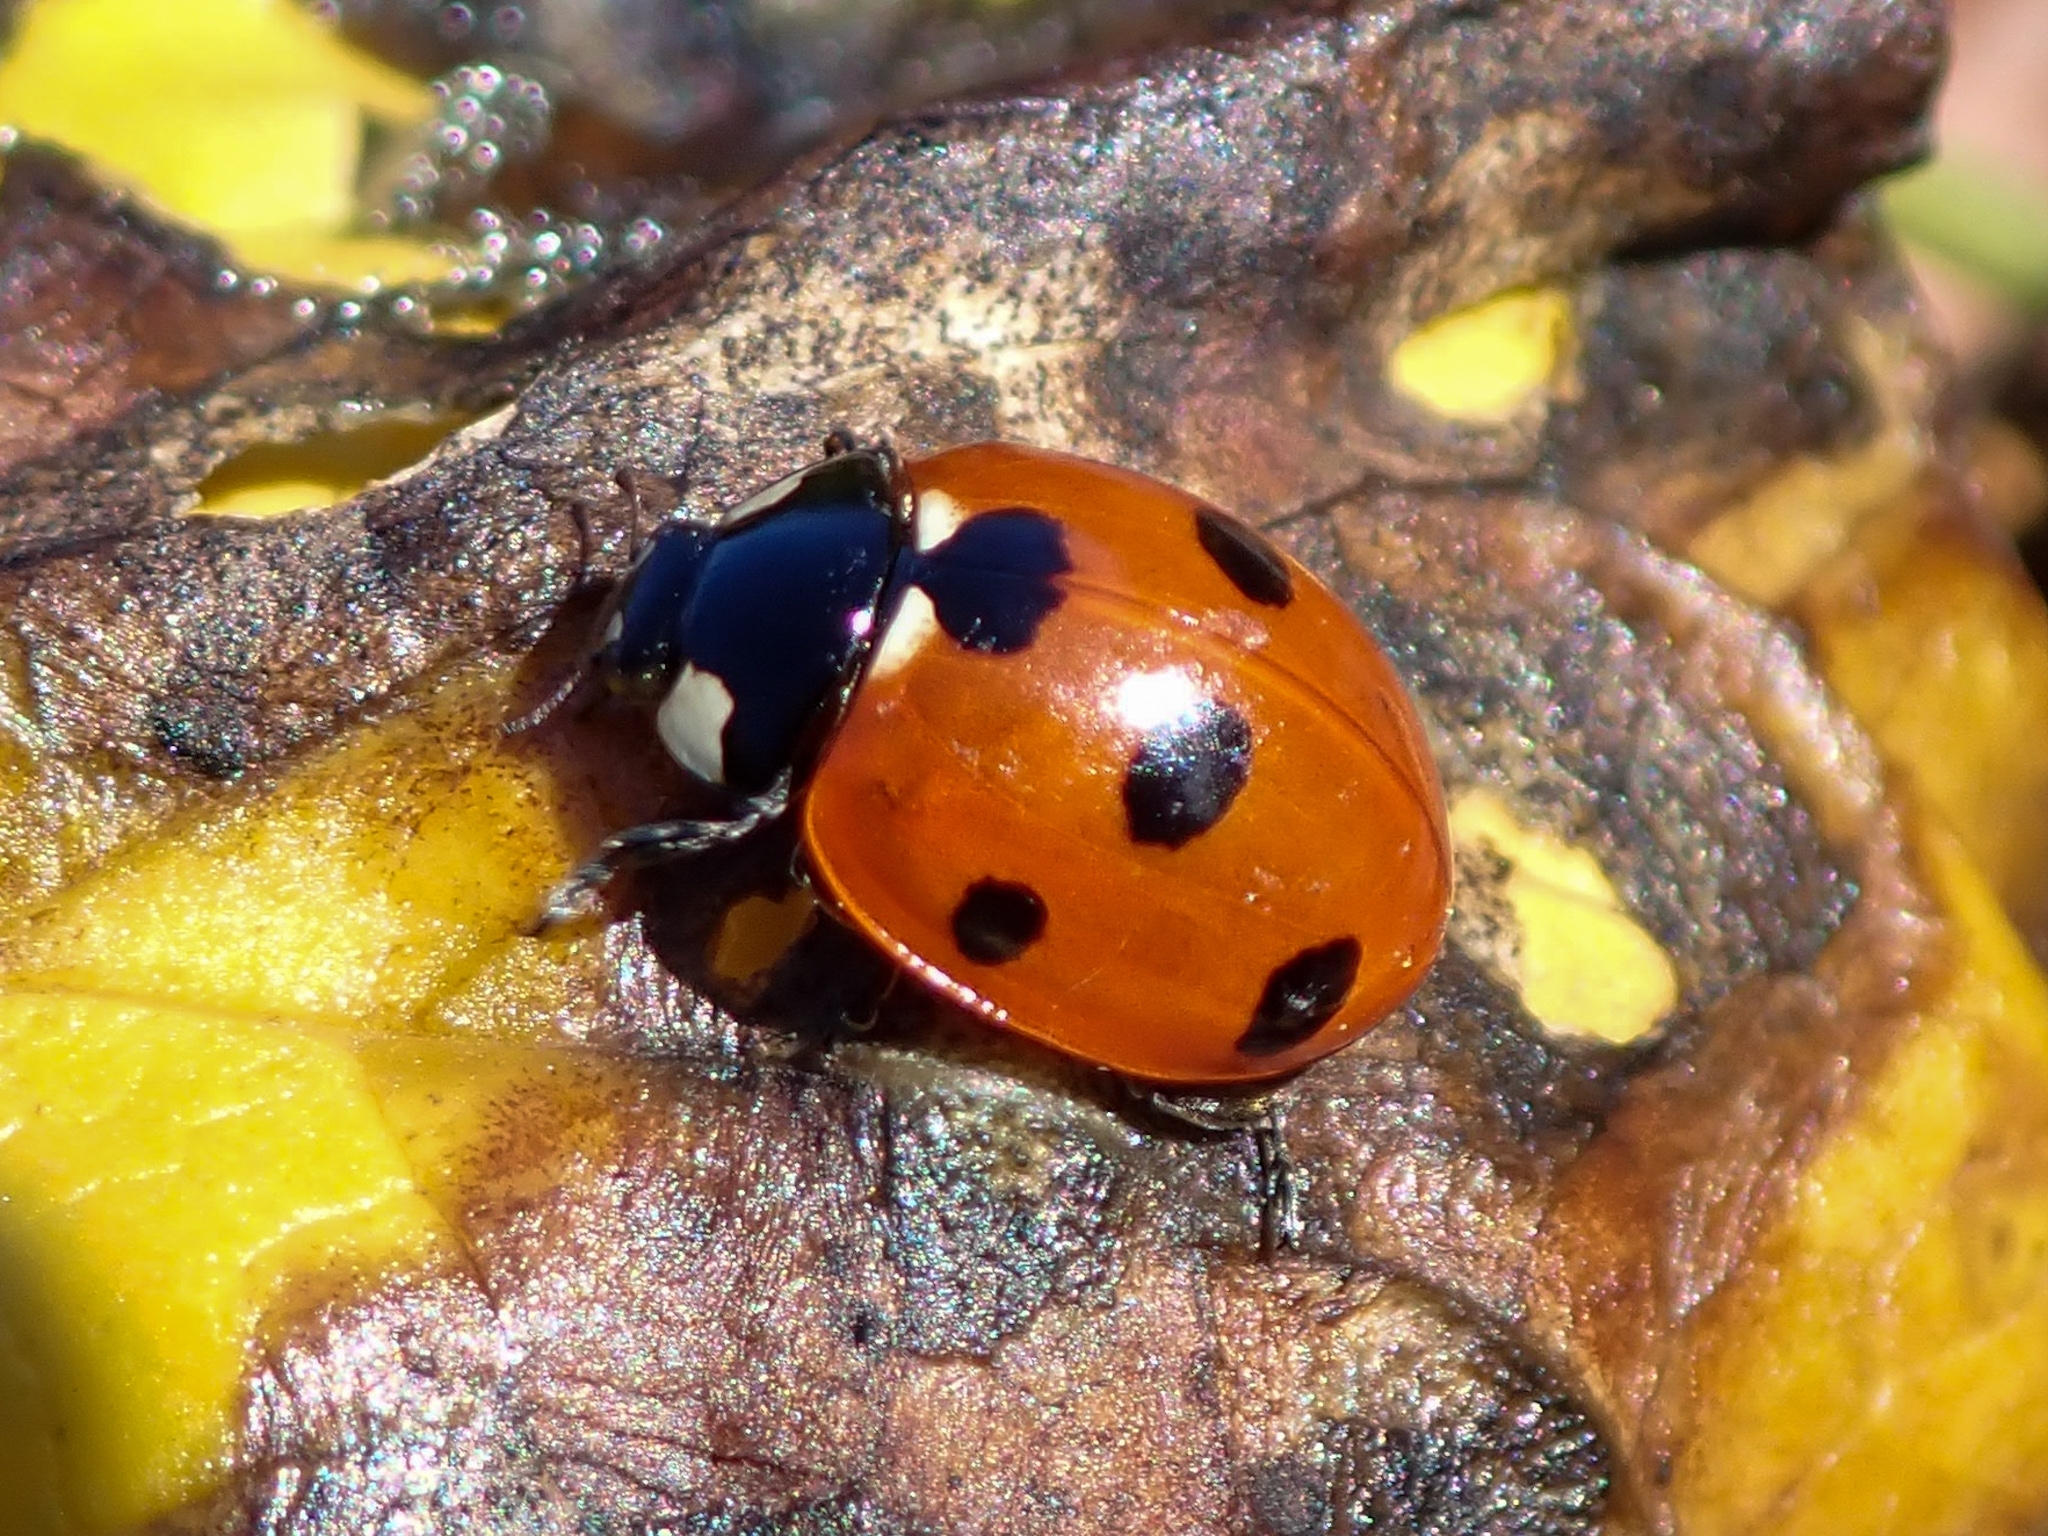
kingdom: Animalia
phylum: Arthropoda
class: Insecta
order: Coleoptera
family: Coccinellidae
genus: Coccinella
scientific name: Coccinella septempunctata
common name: Sevenspotted lady beetle
